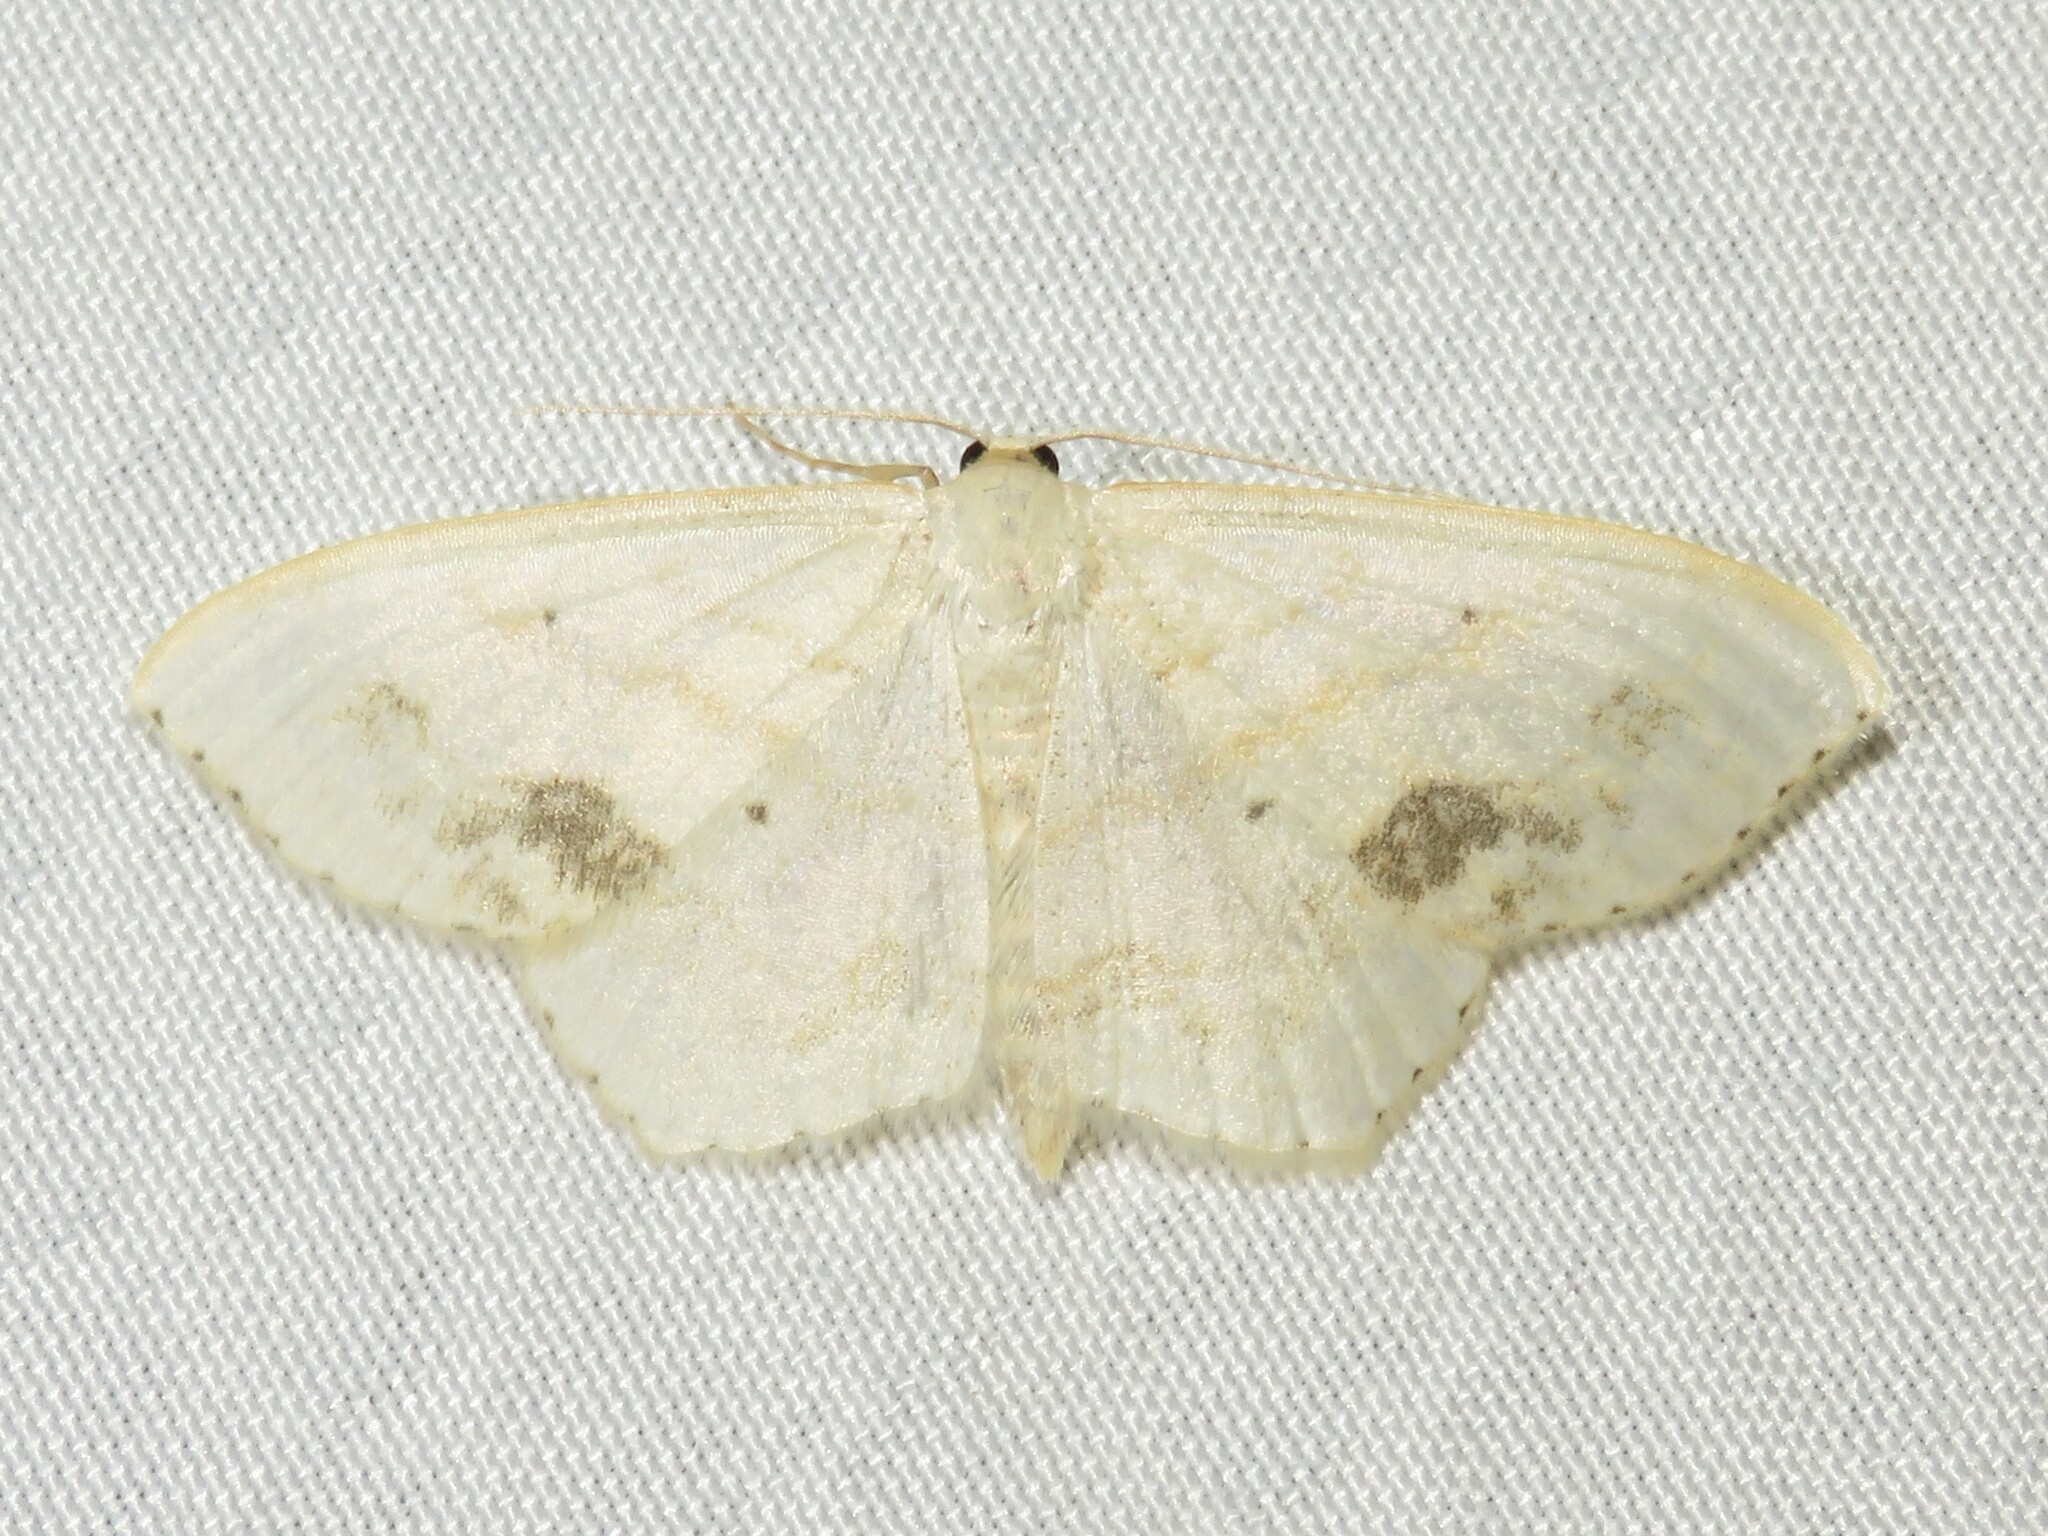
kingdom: Animalia
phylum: Arthropoda
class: Insecta
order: Lepidoptera
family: Geometridae
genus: Scopula
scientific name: Scopula limboundata
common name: Large lace border
